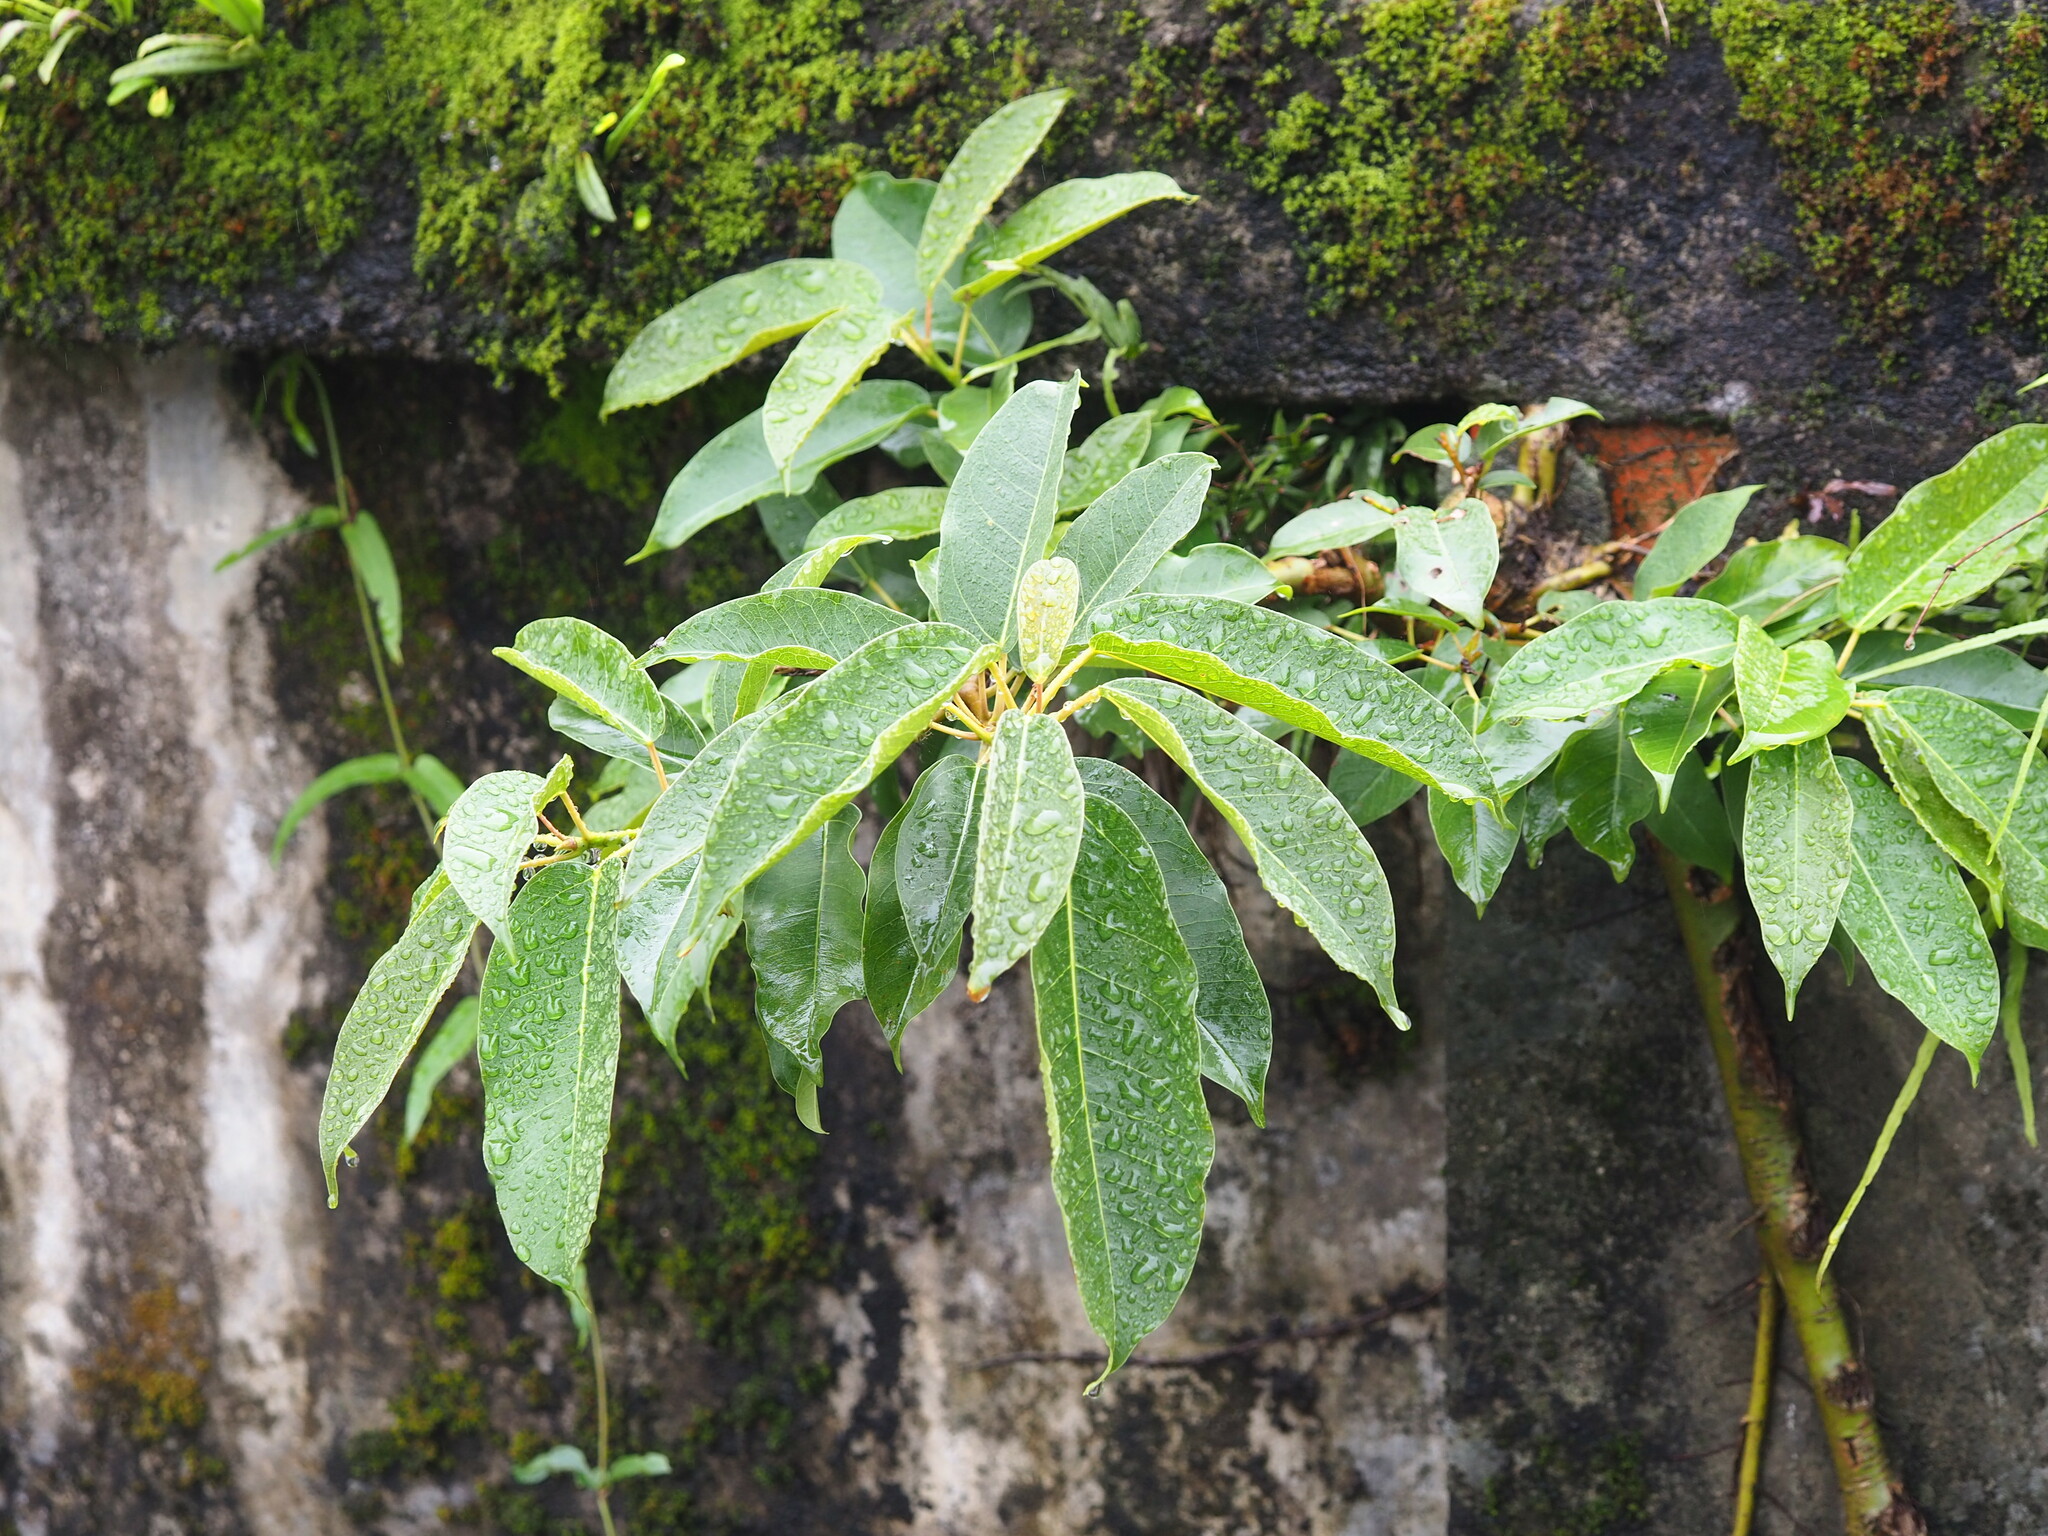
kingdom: Plantae
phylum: Tracheophyta
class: Magnoliopsida
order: Rosales
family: Moraceae
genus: Ficus
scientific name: Ficus subpisocarpa
